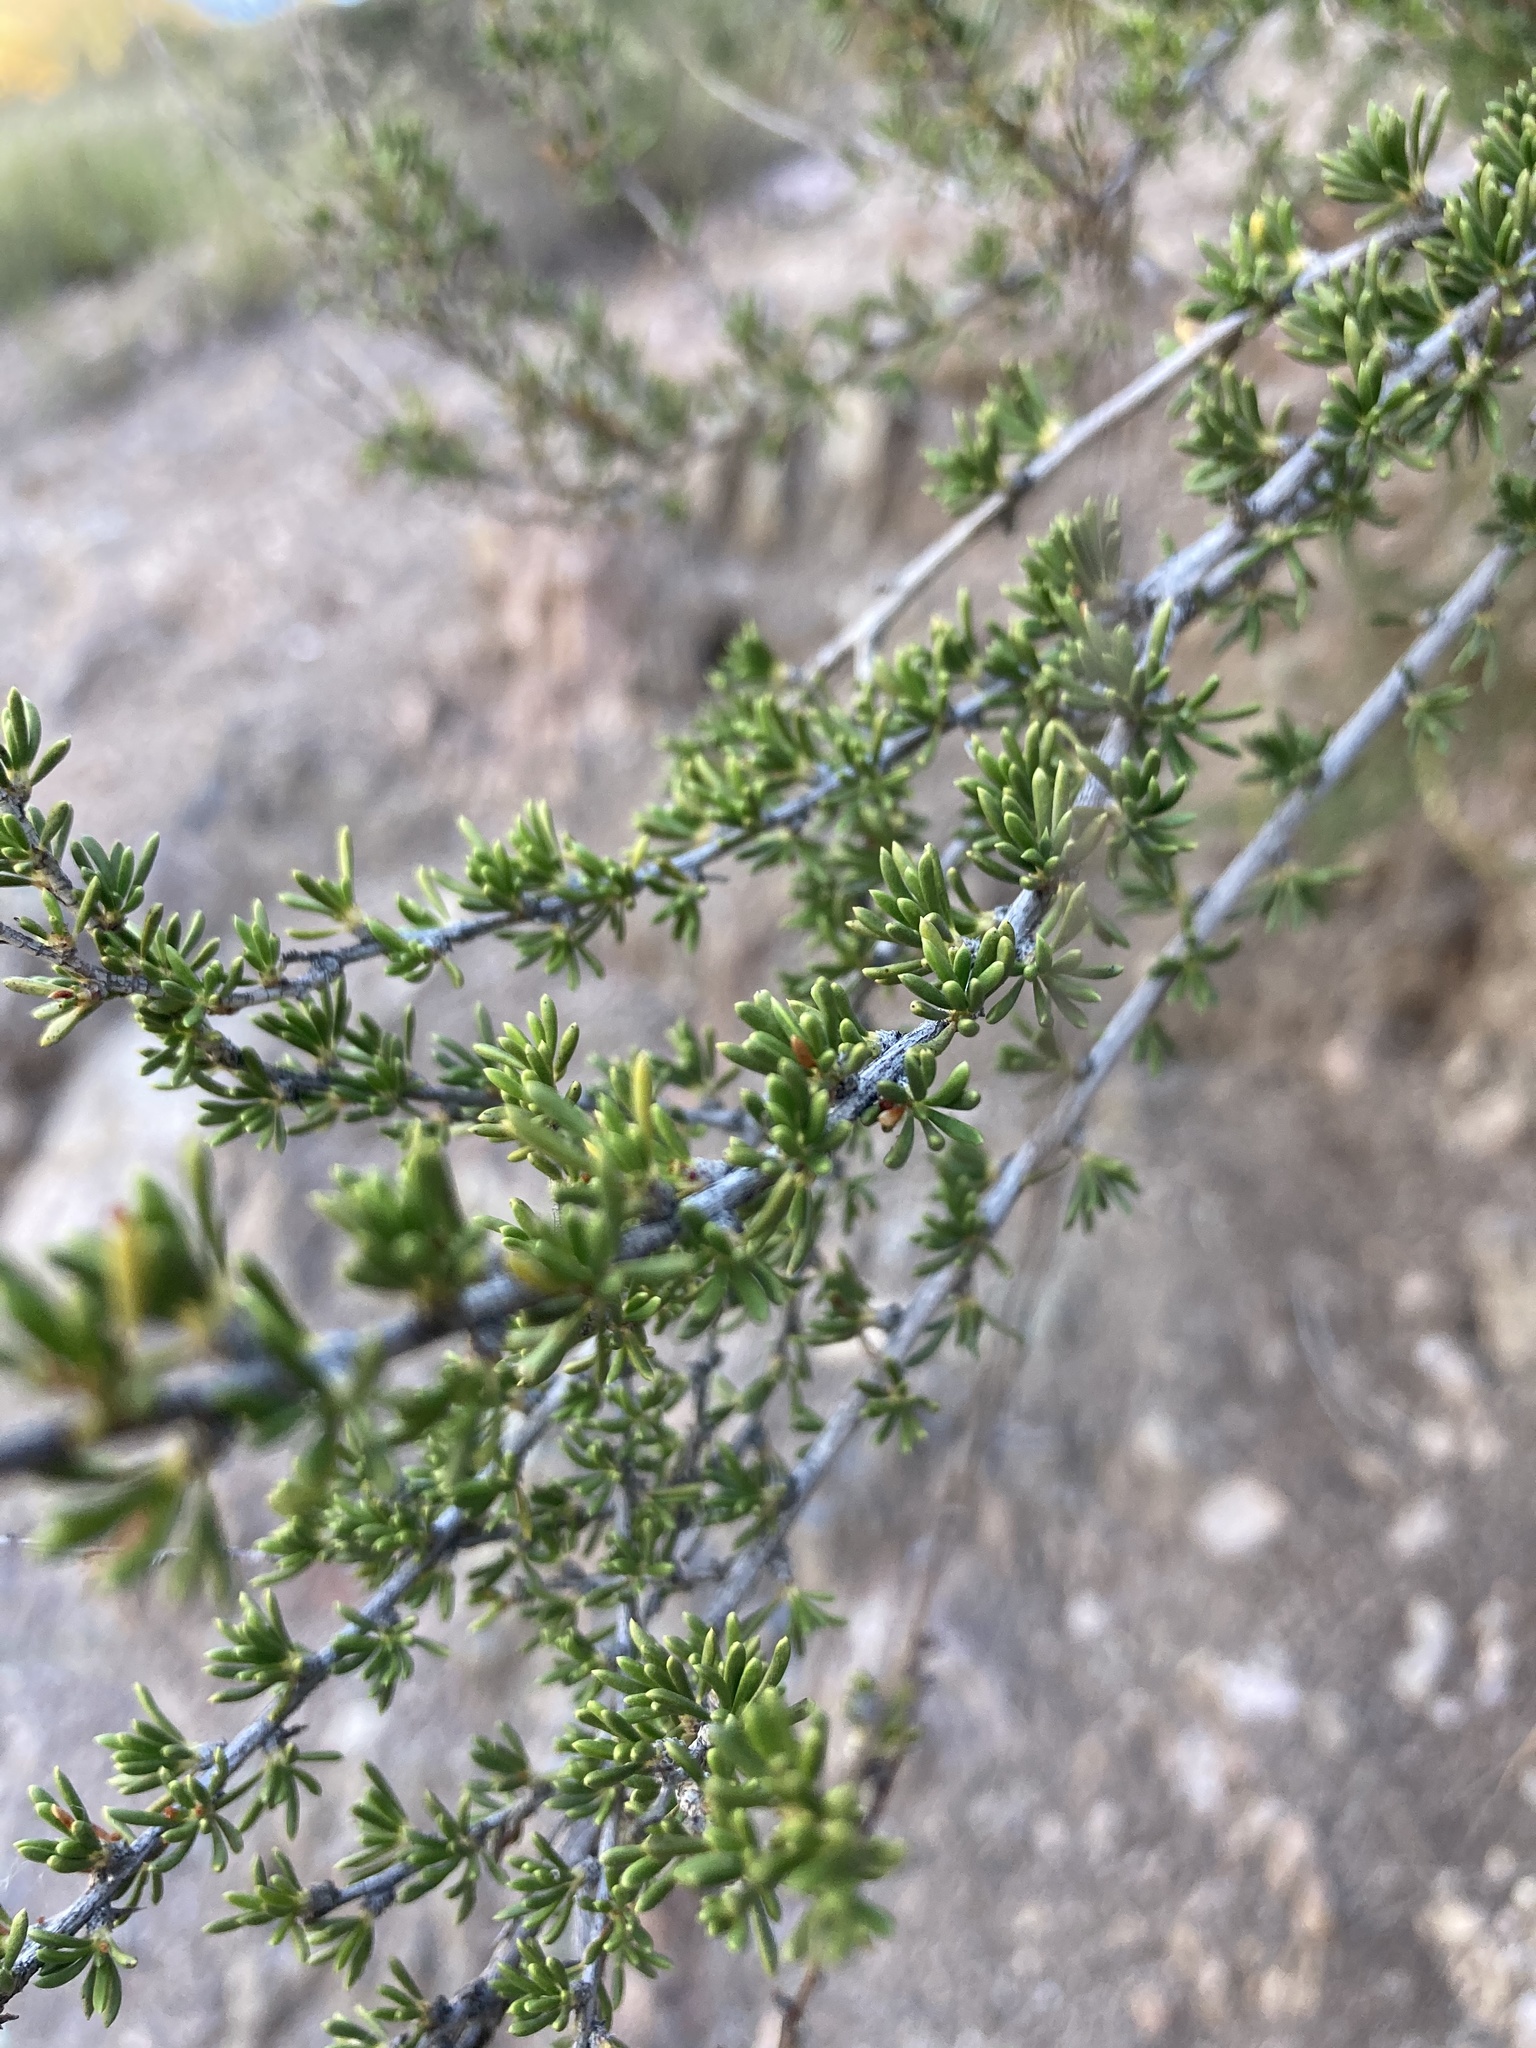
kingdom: Plantae
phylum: Tracheophyta
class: Magnoliopsida
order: Rosales
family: Rosaceae
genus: Adenostoma
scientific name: Adenostoma fasciculatum
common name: Chamise
